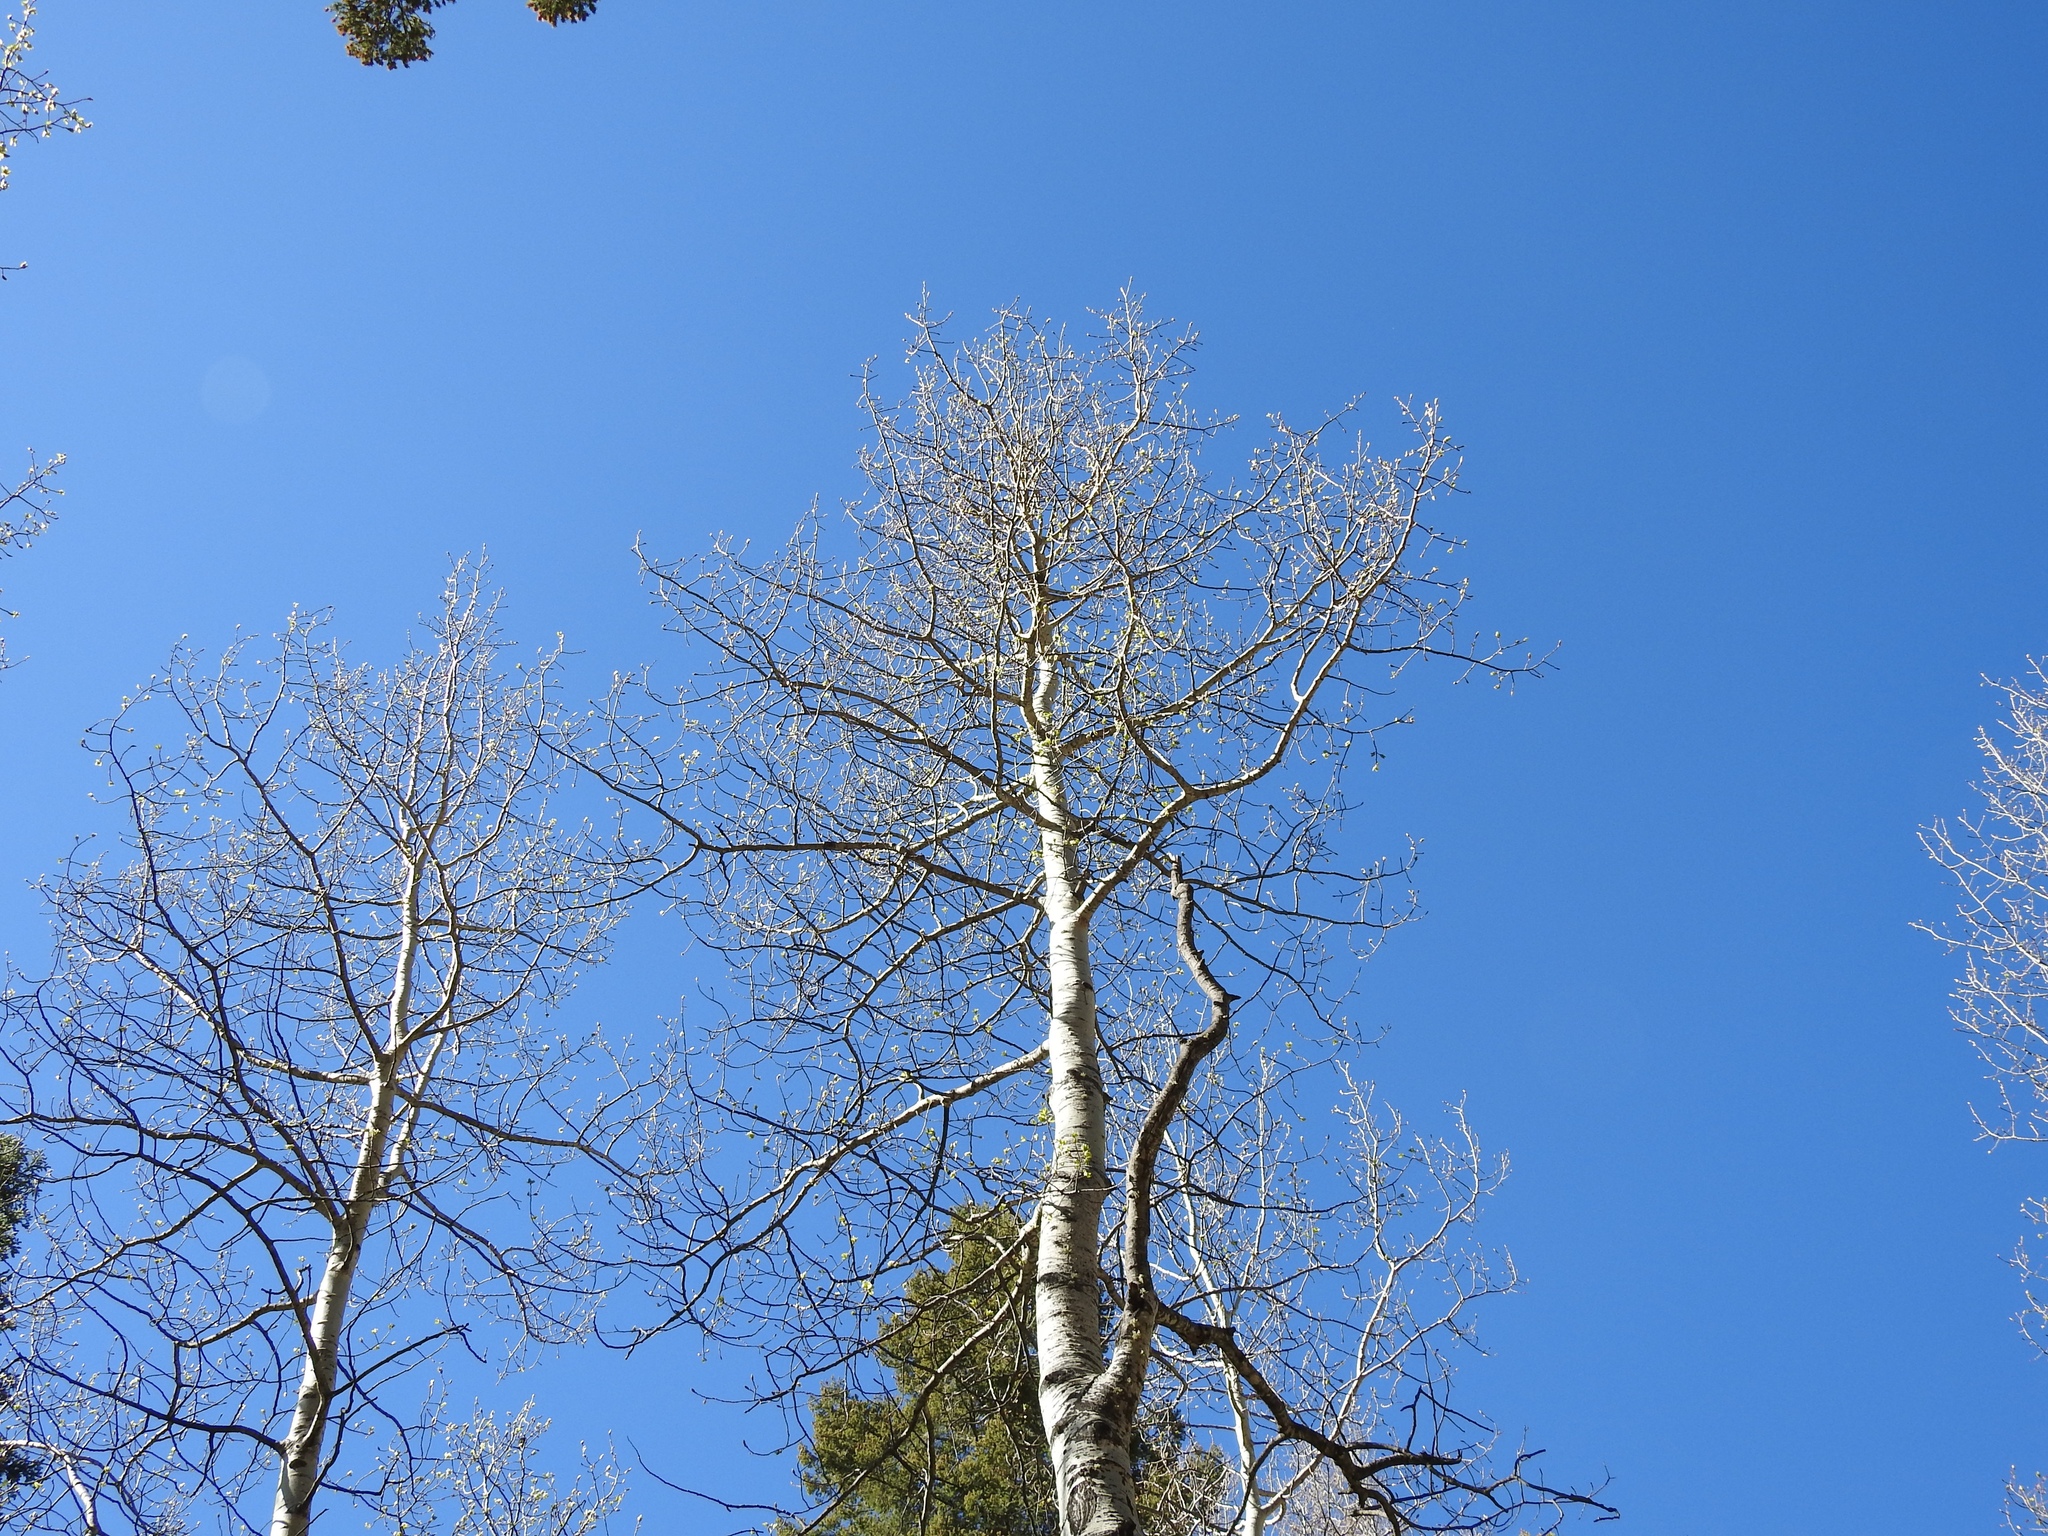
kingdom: Plantae
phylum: Tracheophyta
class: Magnoliopsida
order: Malpighiales
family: Salicaceae
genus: Populus
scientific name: Populus tremuloides
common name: Quaking aspen
